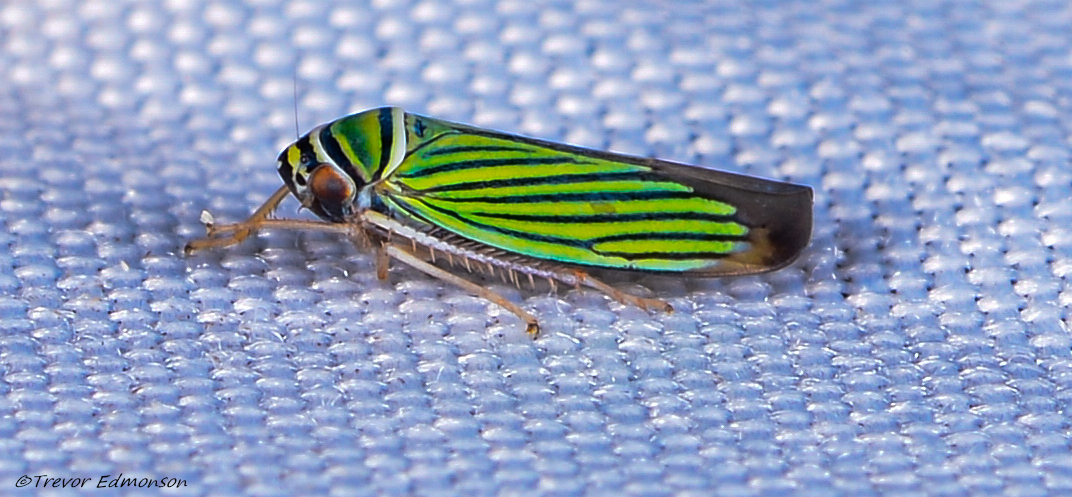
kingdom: Animalia
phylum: Arthropoda
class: Insecta
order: Hemiptera
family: Cicadellidae
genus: Tylozygus
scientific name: Tylozygus bifidus
